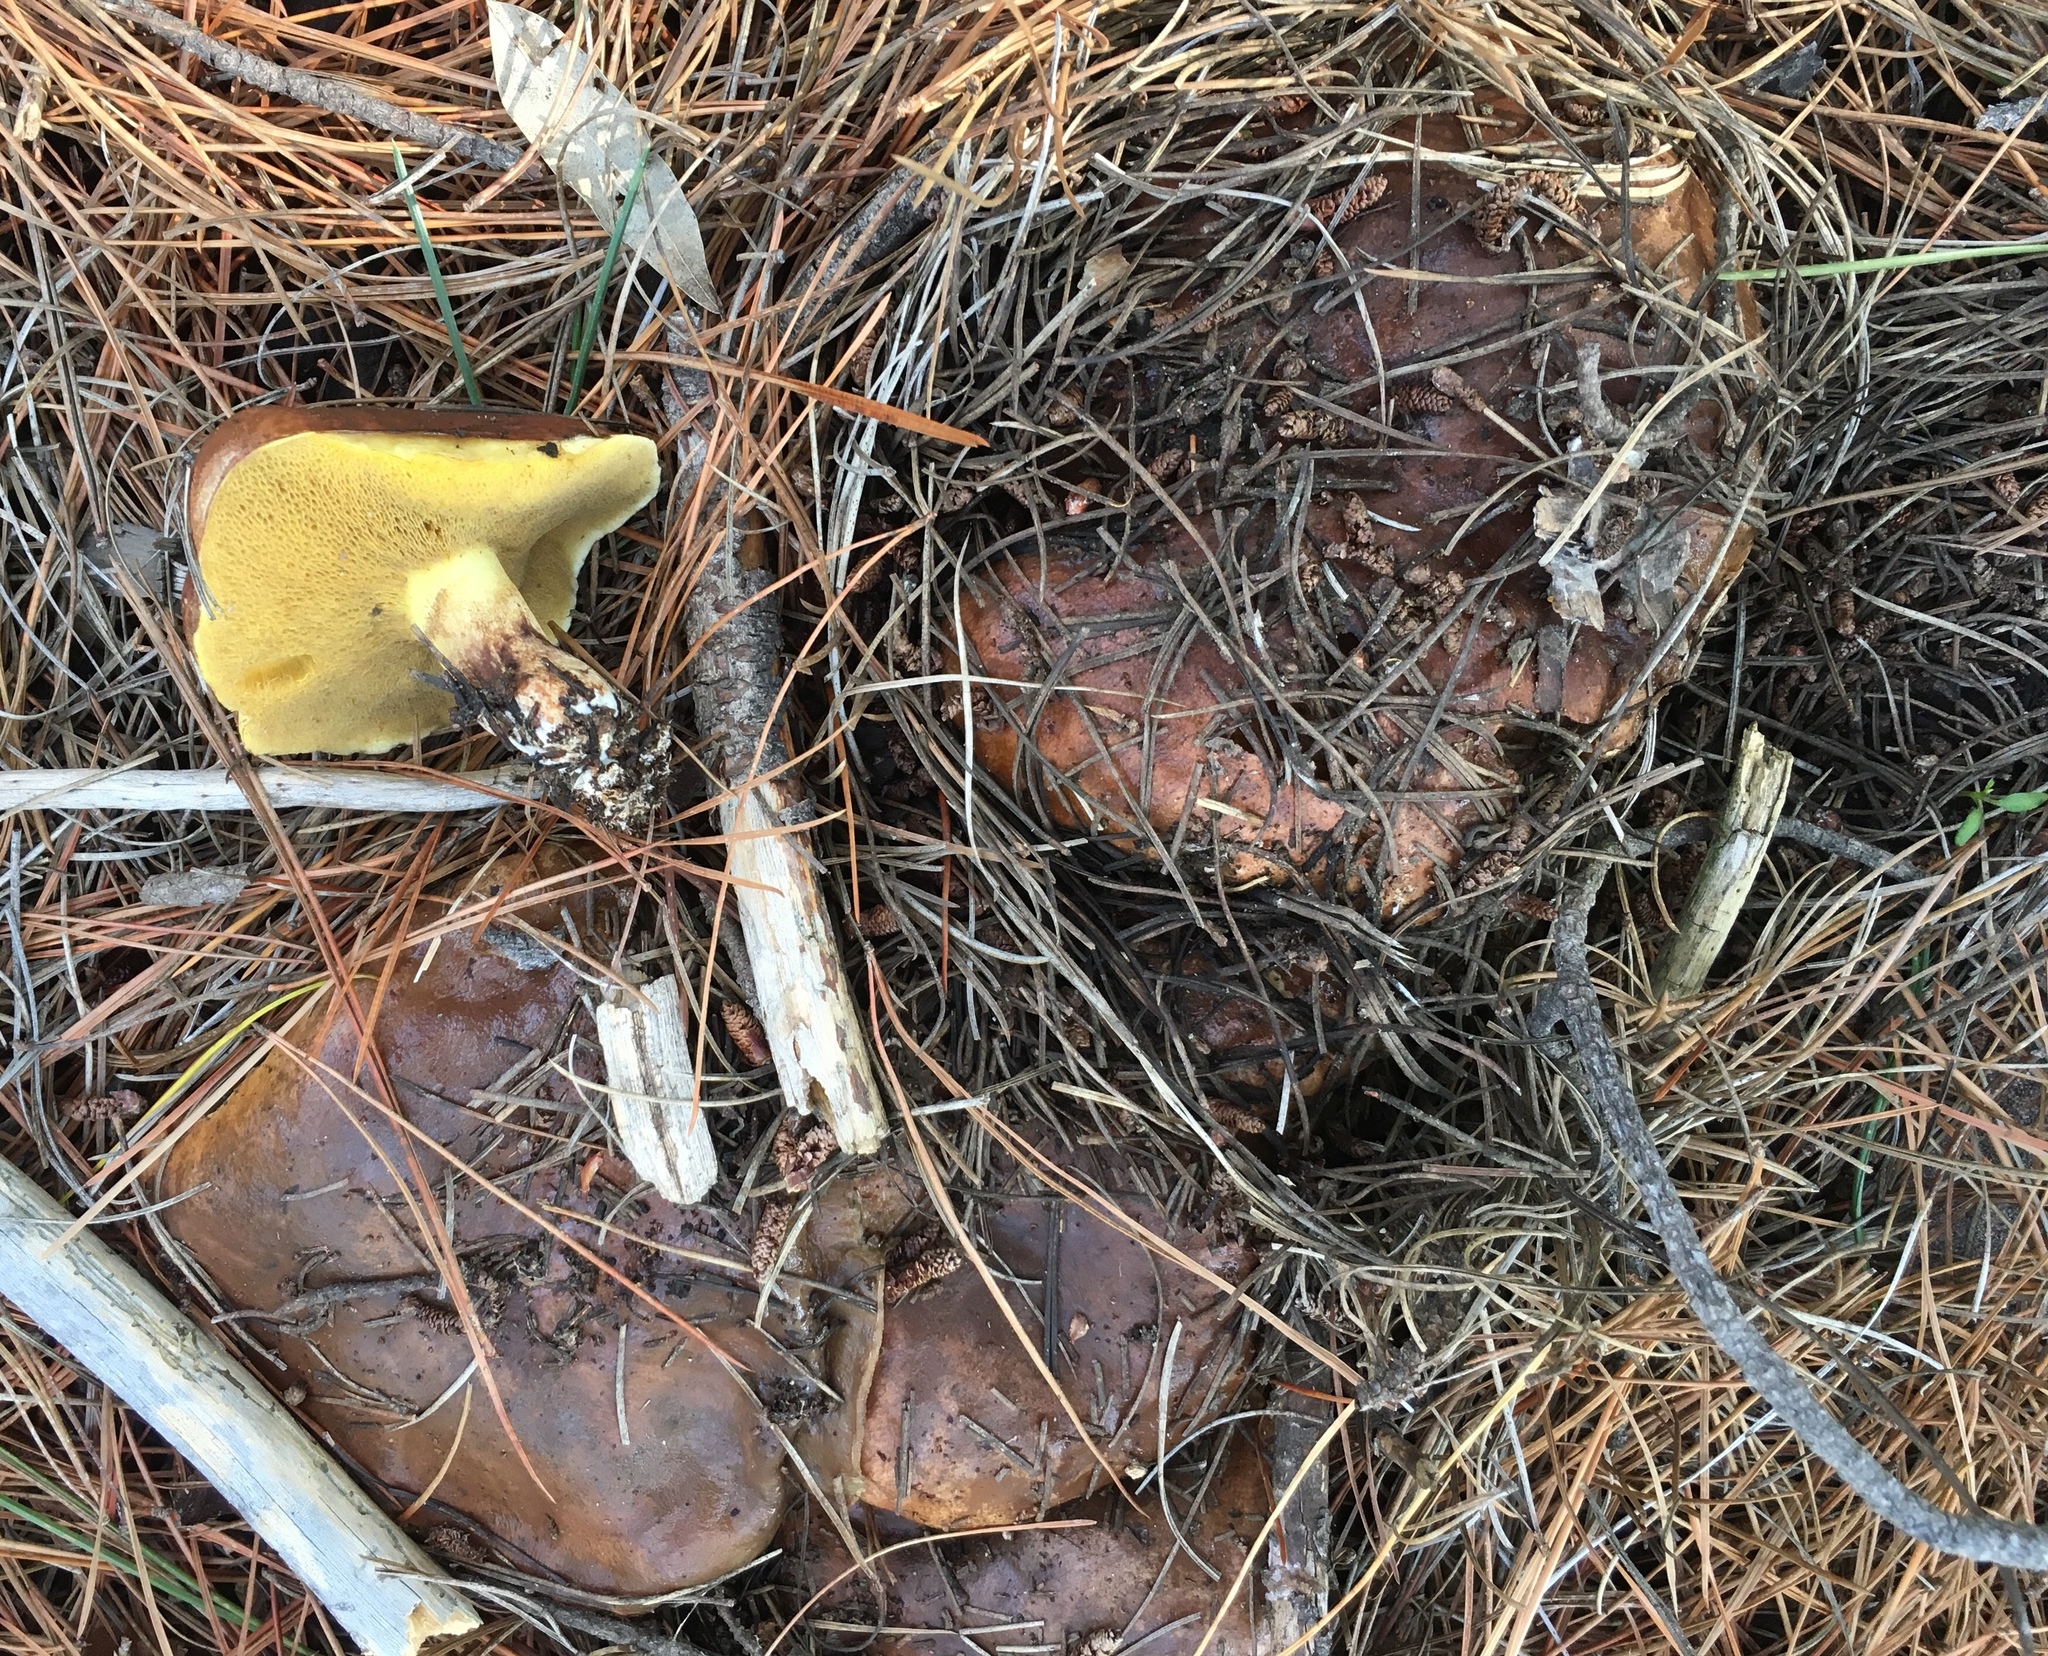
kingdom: Fungi
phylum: Basidiomycota
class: Agaricomycetes
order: Boletales
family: Suillaceae
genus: Suillus
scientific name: Suillus brevipes
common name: Short-stalked suillus
